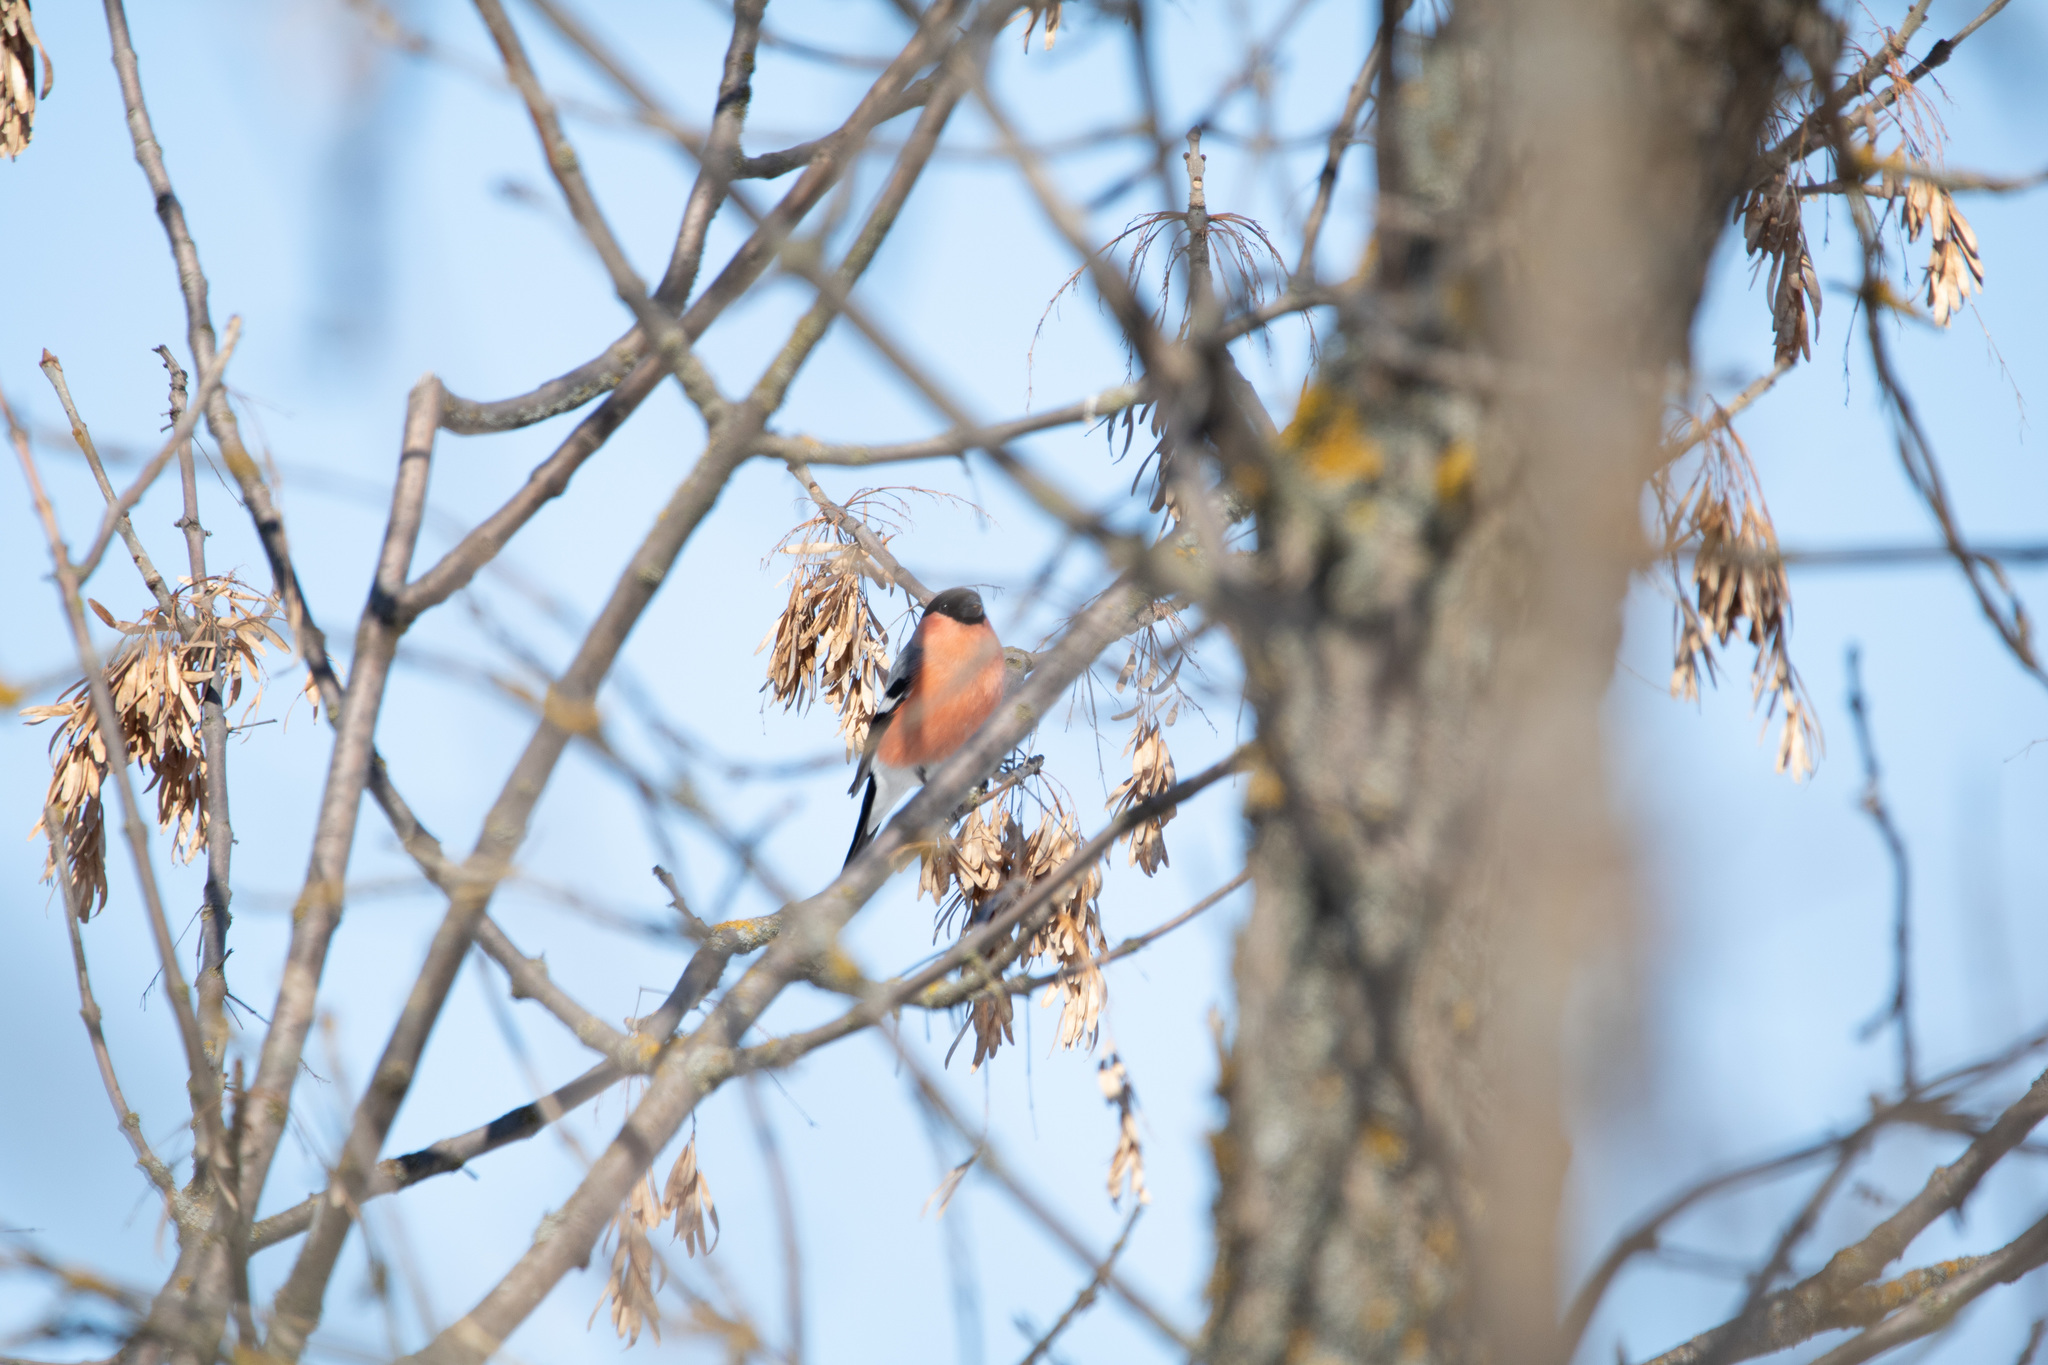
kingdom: Animalia
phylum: Chordata
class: Aves
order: Passeriformes
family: Fringillidae
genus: Pyrrhula
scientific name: Pyrrhula pyrrhula
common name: Eurasian bullfinch
